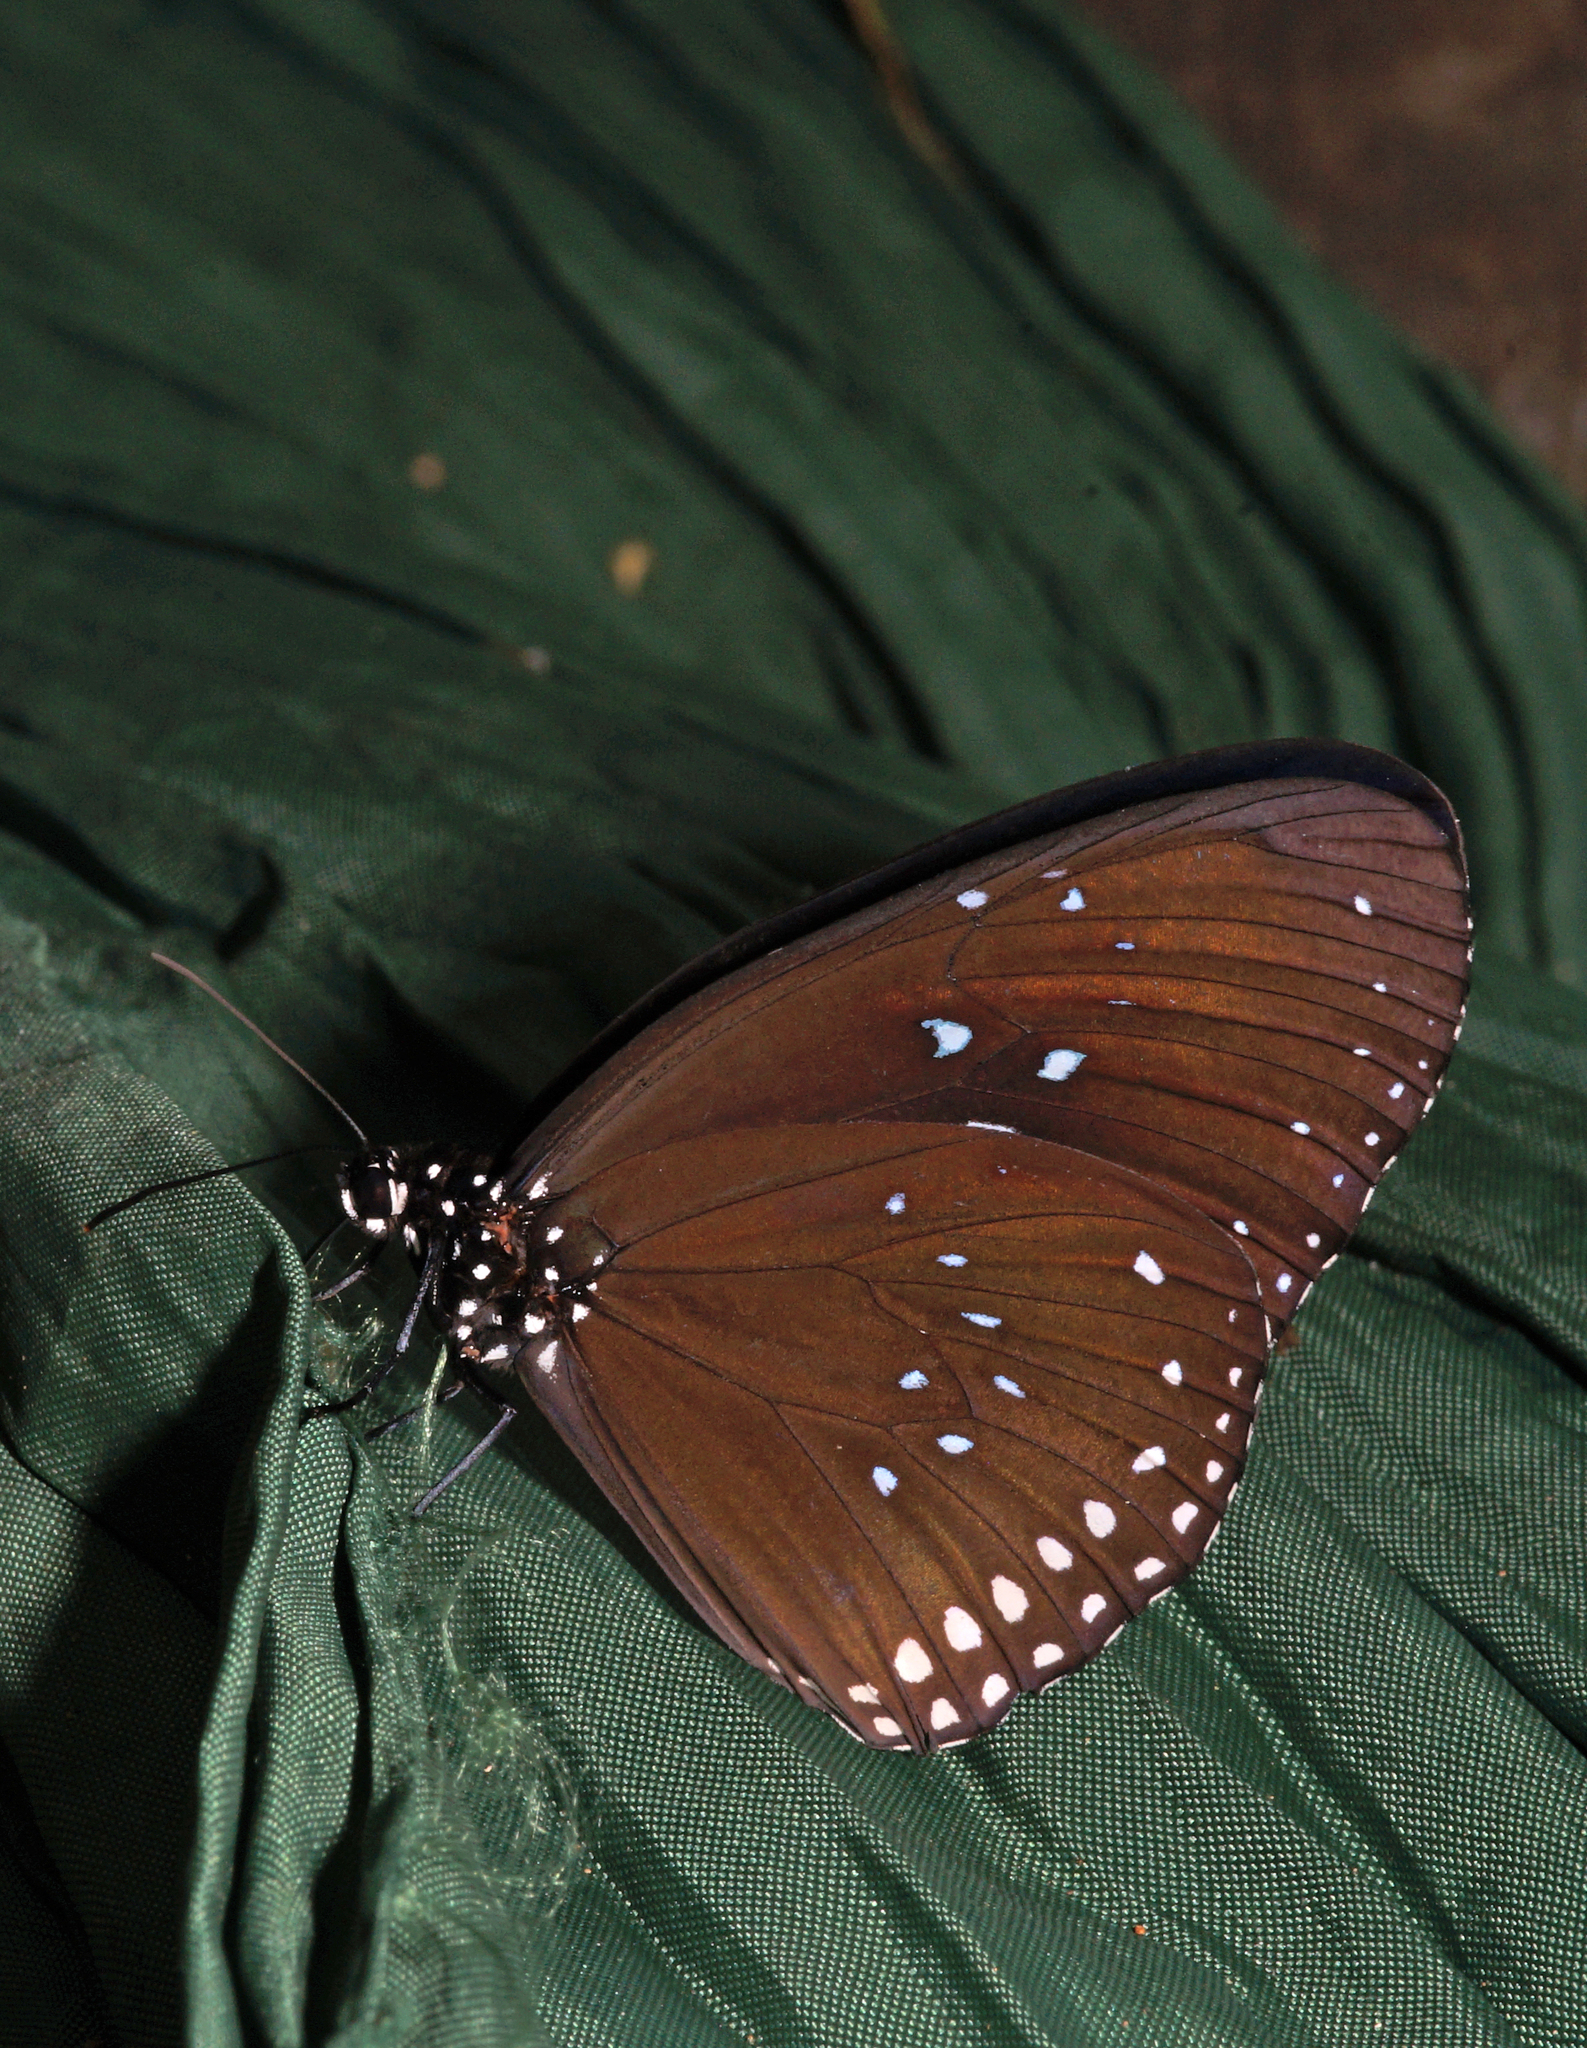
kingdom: Animalia
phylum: Arthropoda
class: Insecta
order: Lepidoptera
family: Nymphalidae
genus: Euploea
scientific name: Euploea sylvester
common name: Double-branded crow butterfly
